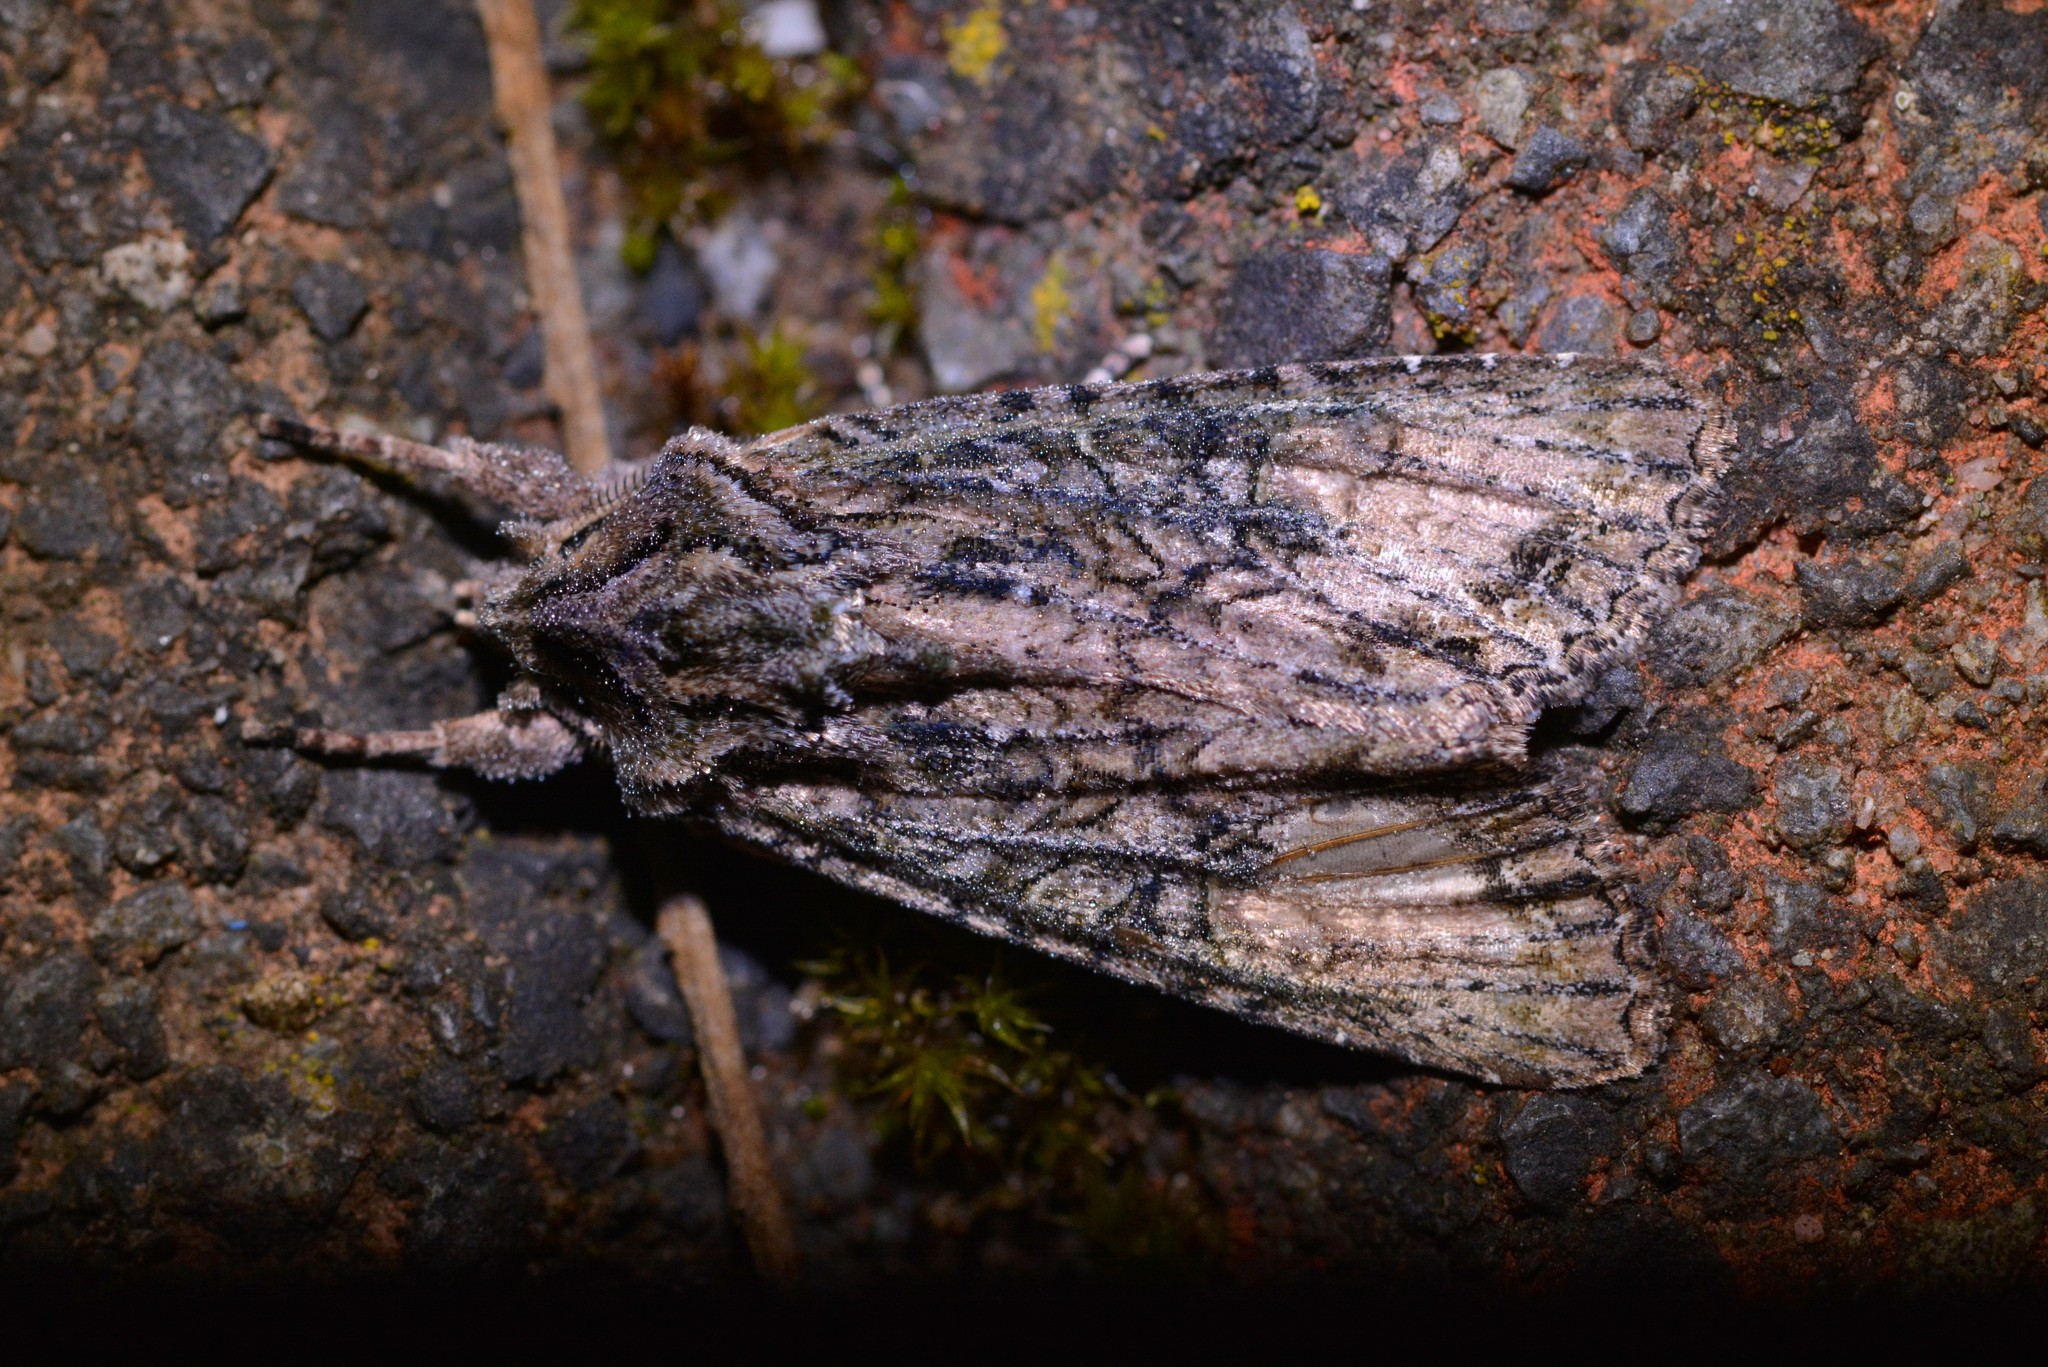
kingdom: Animalia
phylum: Arthropoda
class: Insecta
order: Lepidoptera
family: Noctuidae
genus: Ichneutica
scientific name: Ichneutica mutans
